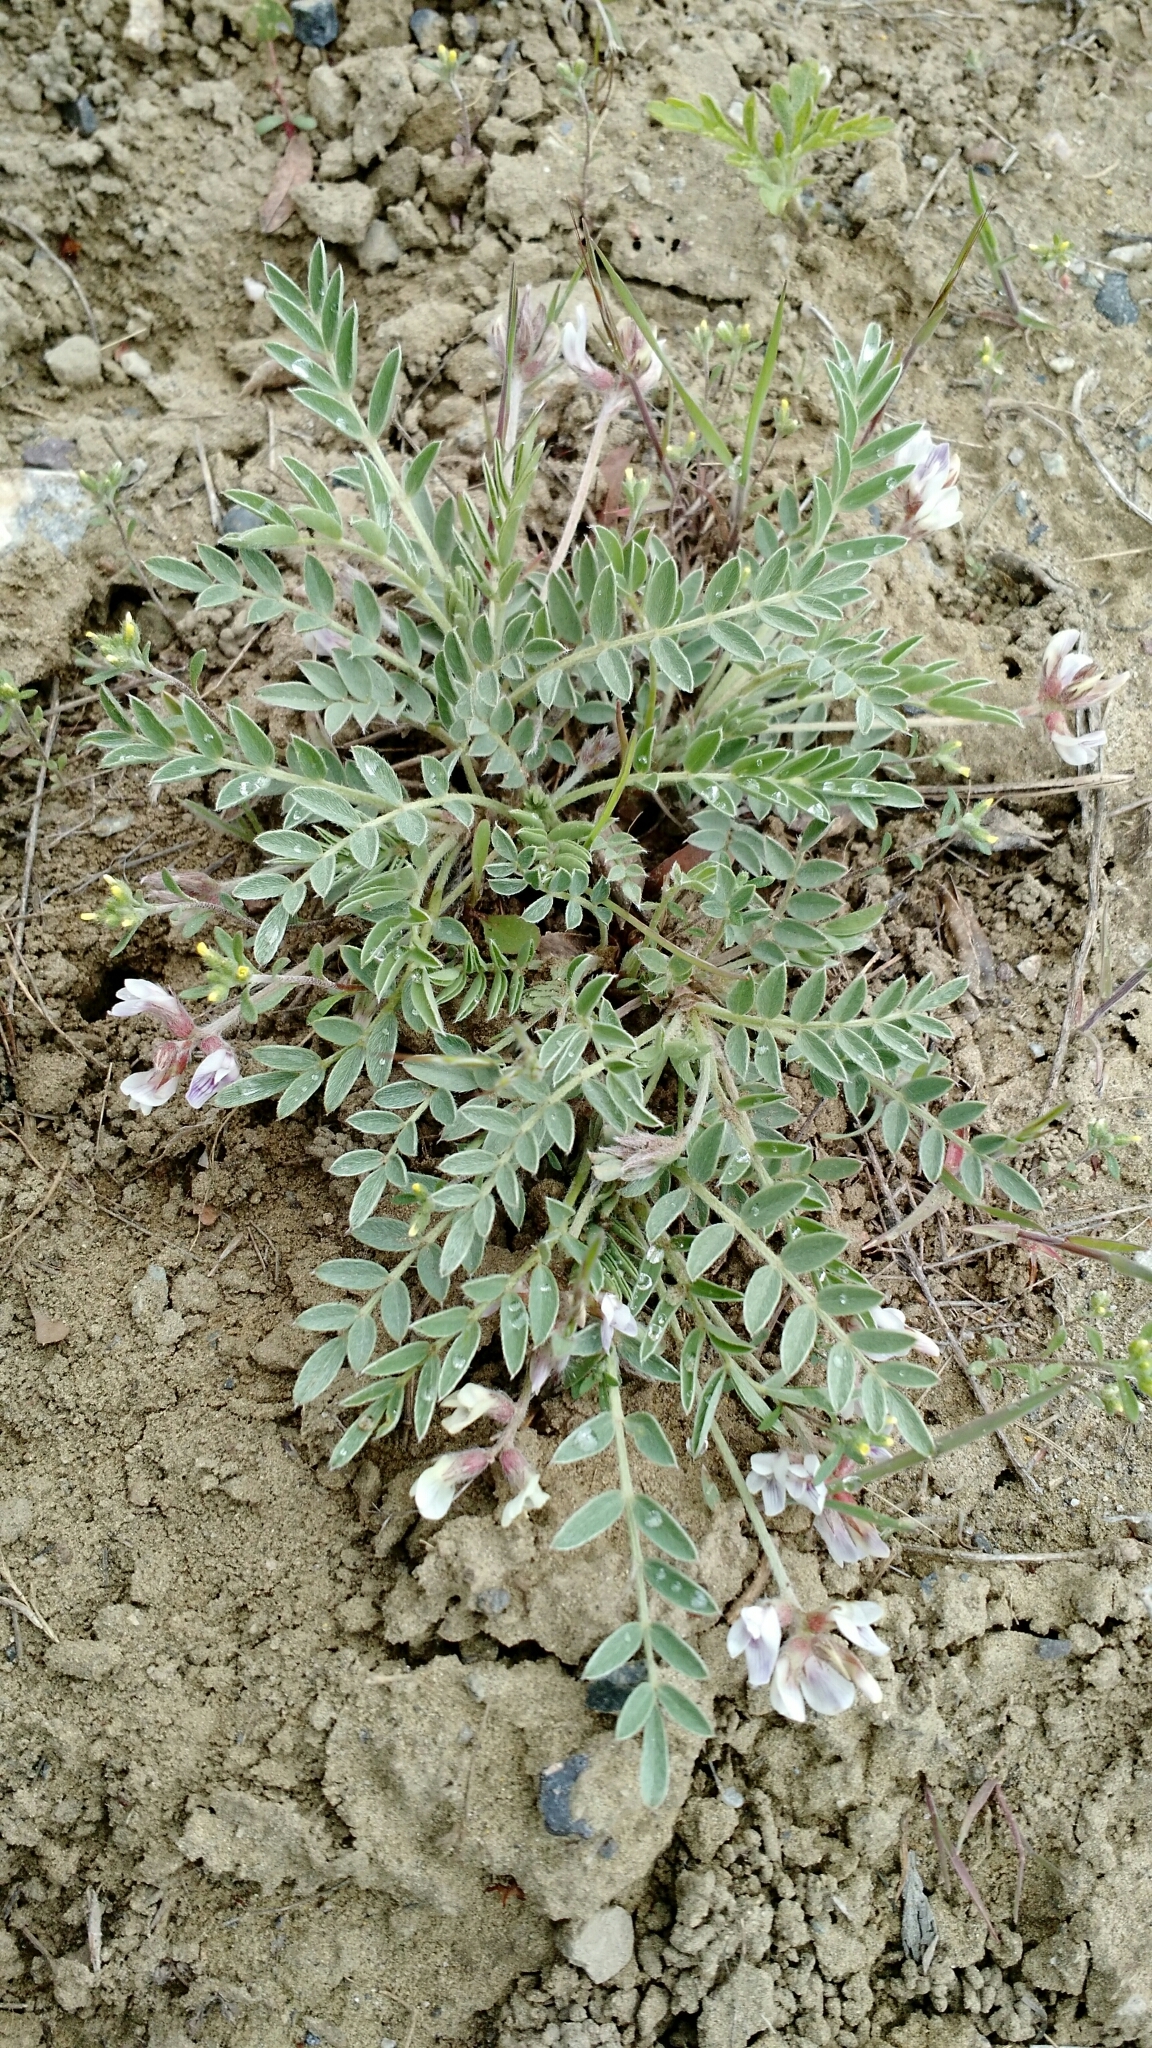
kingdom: Plantae
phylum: Tracheophyta
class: Magnoliopsida
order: Fabales
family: Fabaceae
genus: Astragalus
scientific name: Astragalus lotiflorus
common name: Lotus milk-vetch
